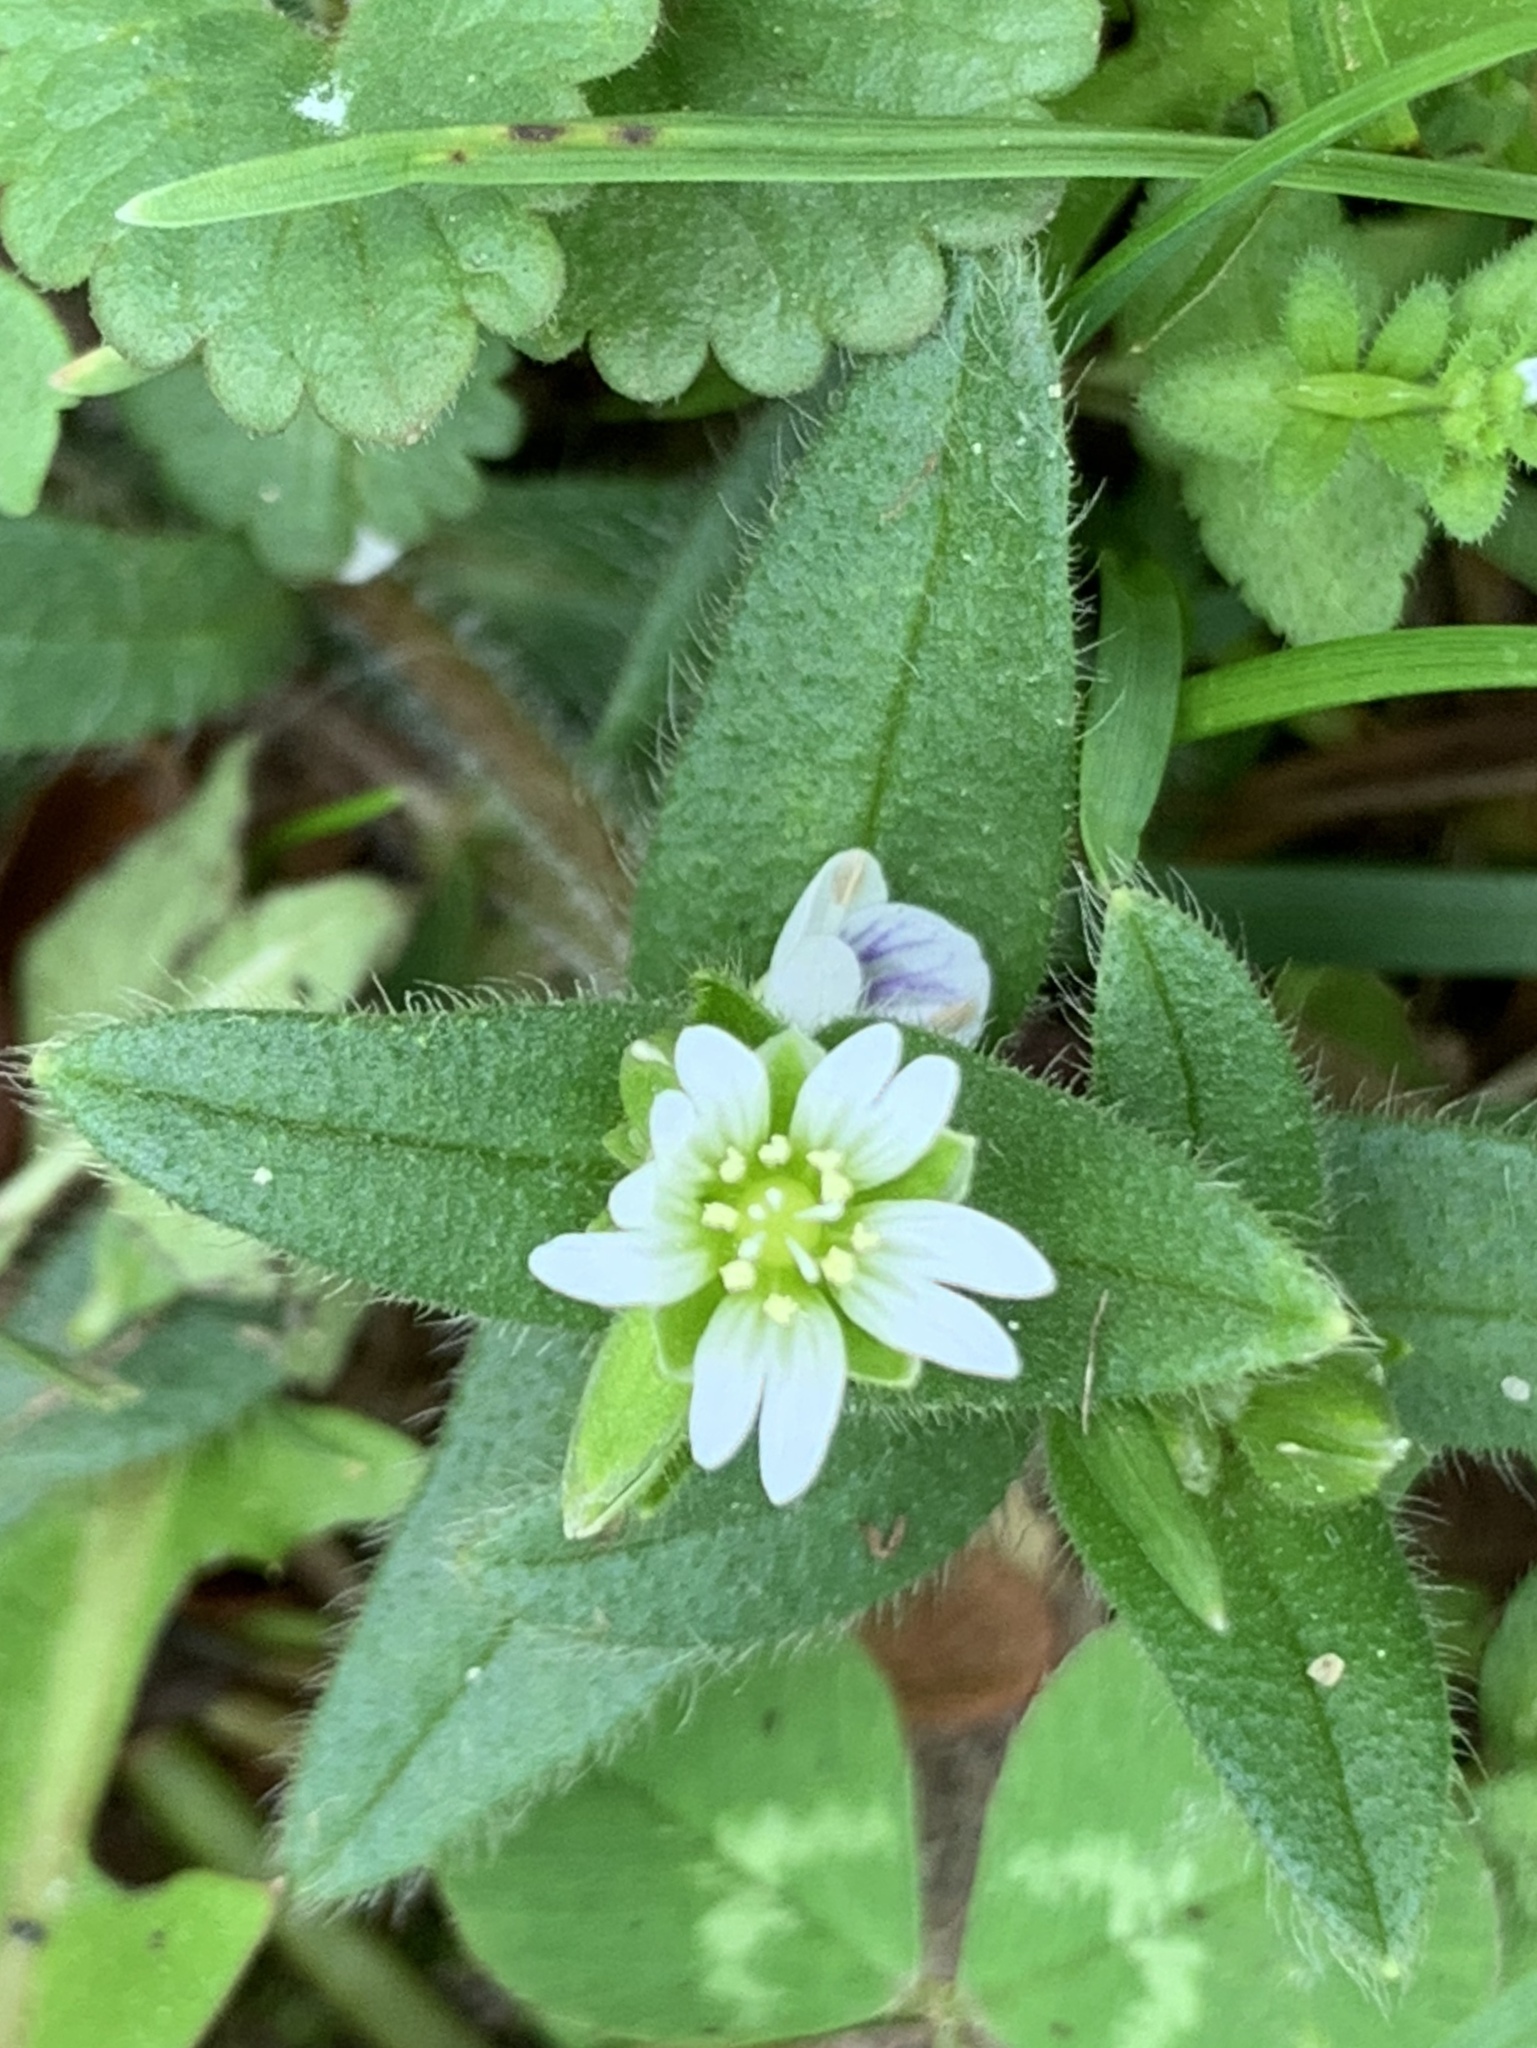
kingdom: Plantae
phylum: Tracheophyta
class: Magnoliopsida
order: Caryophyllales
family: Caryophyllaceae
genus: Cerastium
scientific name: Cerastium fontanum
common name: Common mouse-ear
